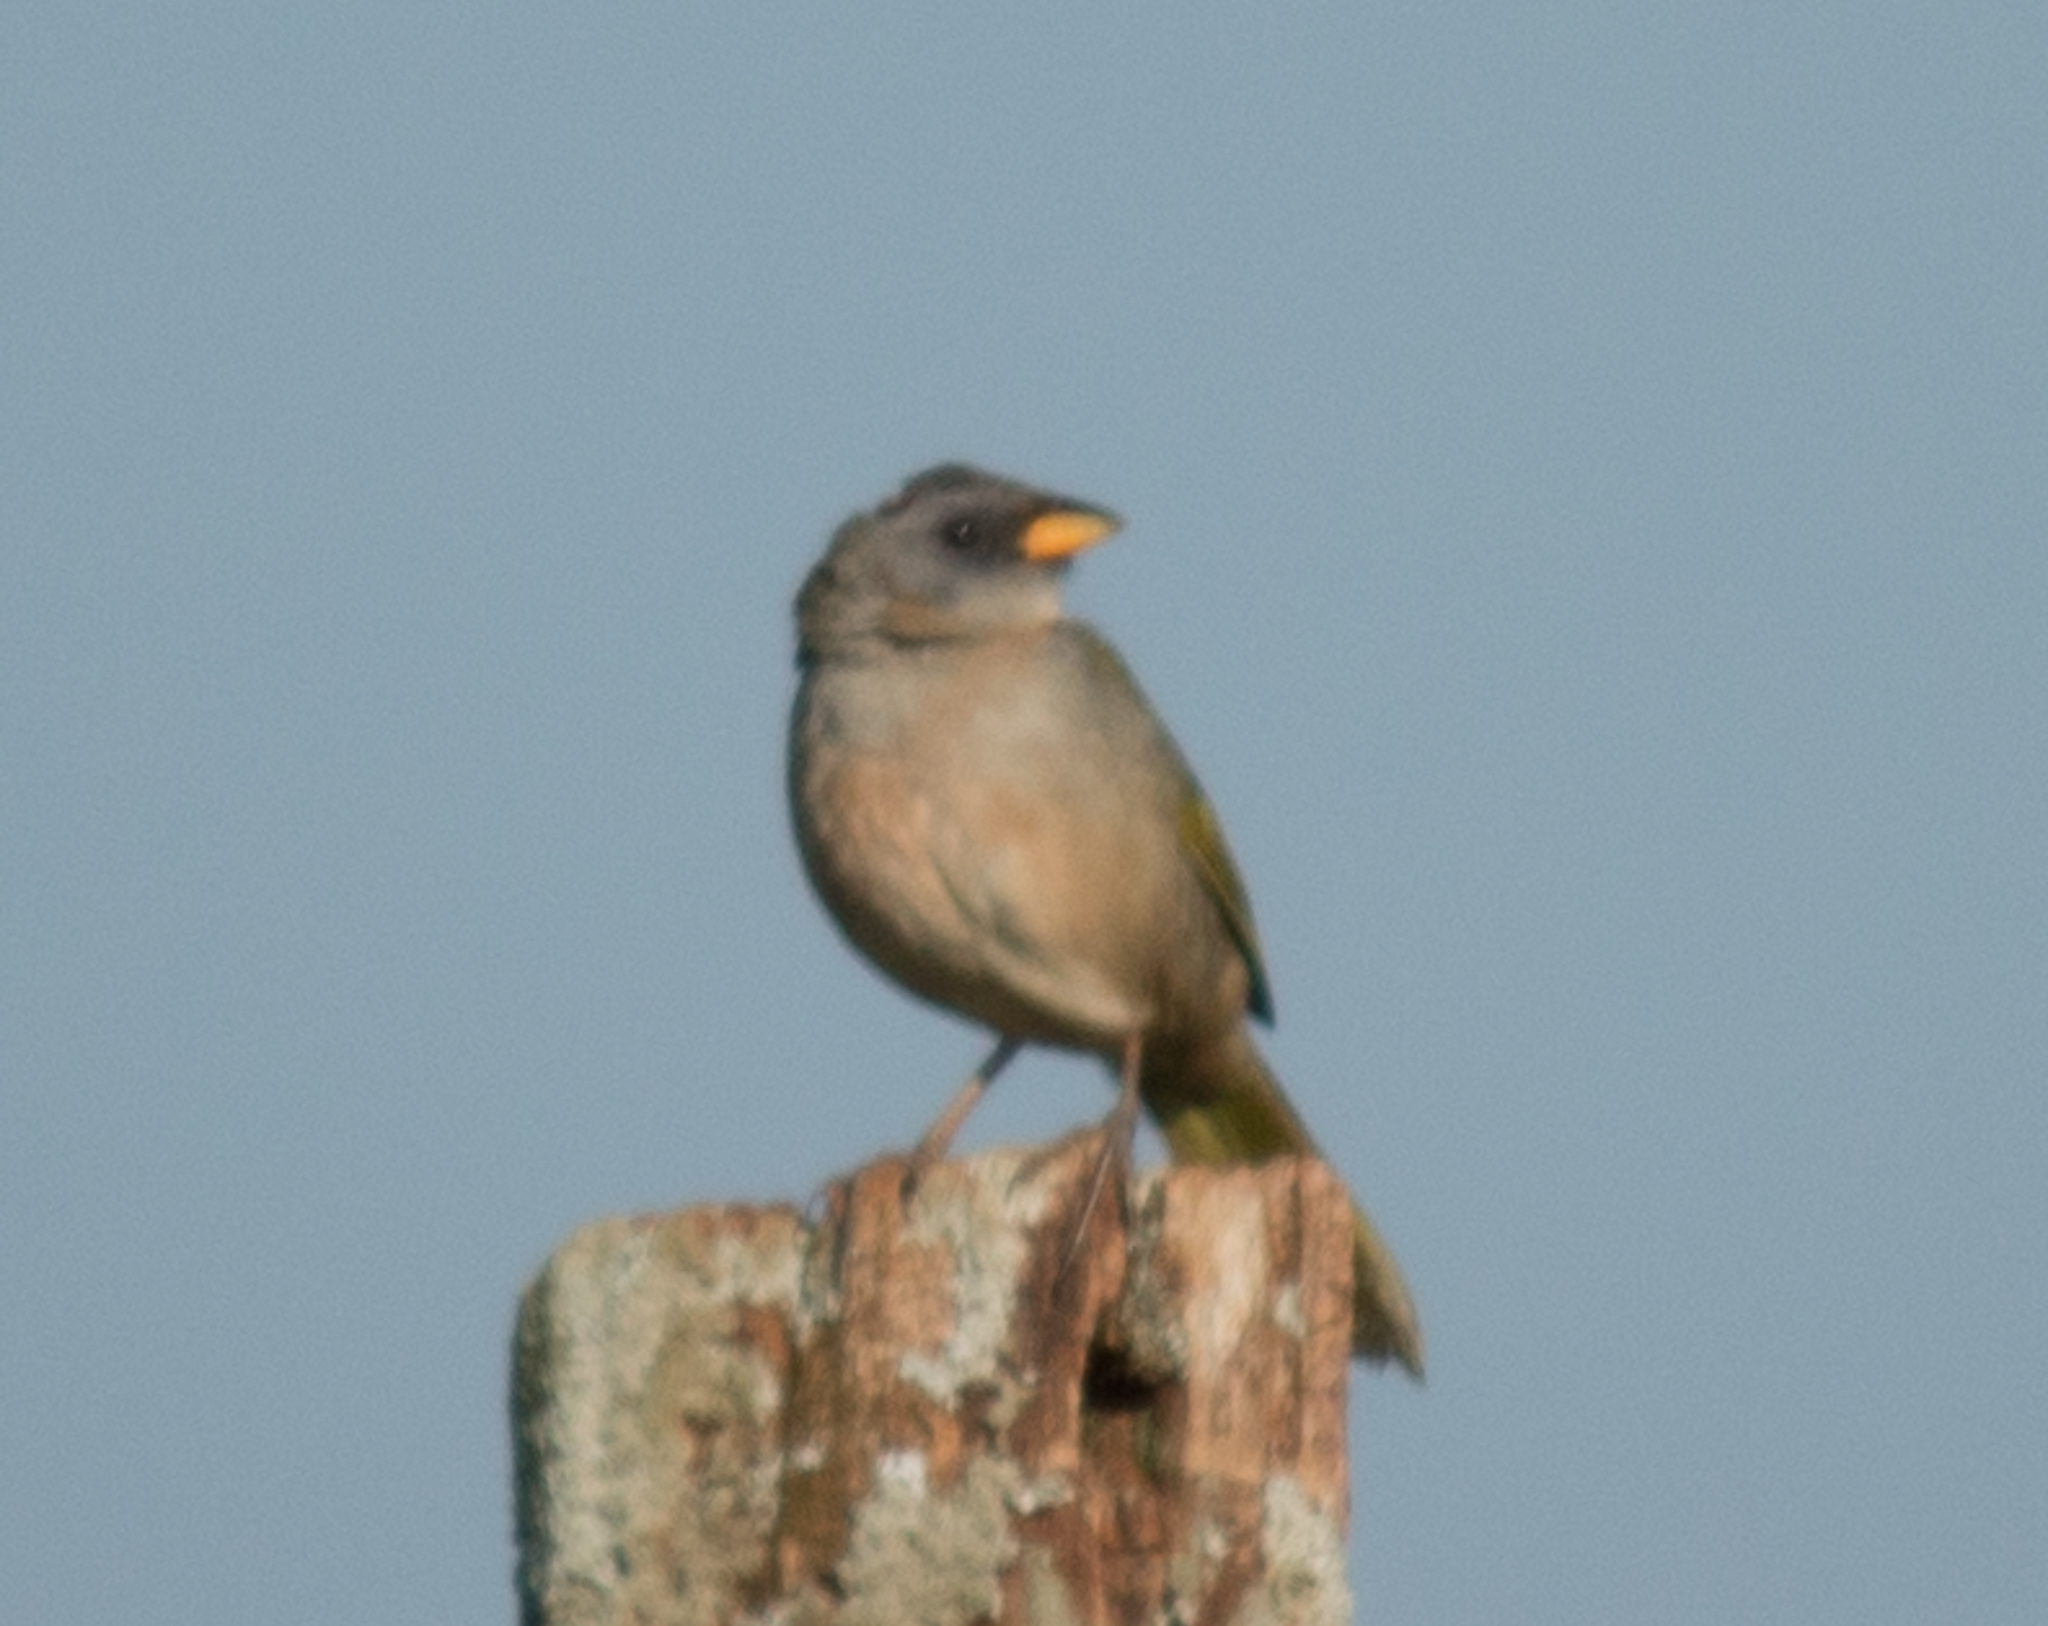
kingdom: Animalia
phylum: Chordata
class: Aves
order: Passeriformes
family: Thraupidae
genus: Embernagra
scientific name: Embernagra platensis
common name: Pampa finch
